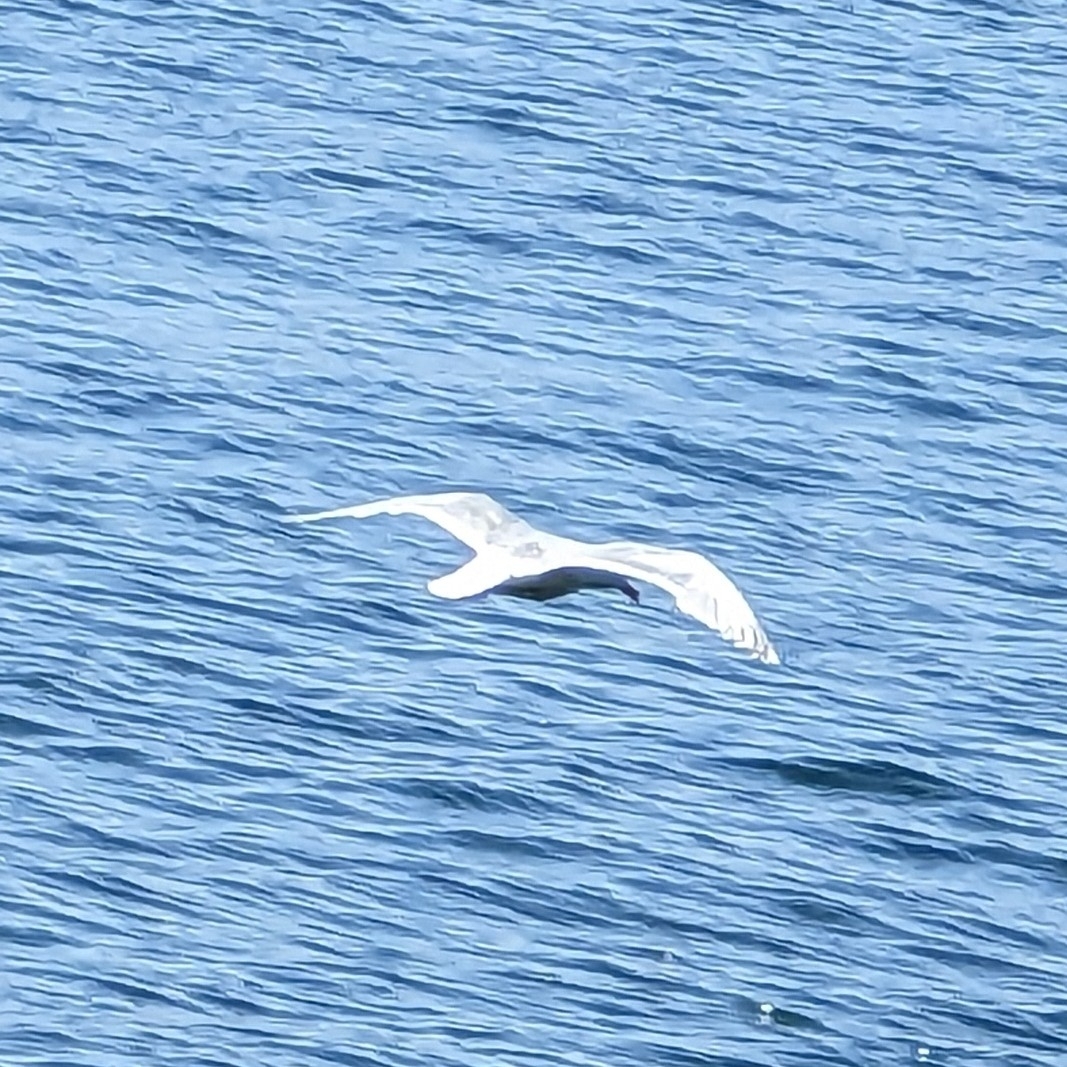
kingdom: Animalia
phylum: Chordata
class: Aves
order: Charadriiformes
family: Laridae
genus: Larus
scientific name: Larus glaucescens
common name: Glaucous-winged gull
